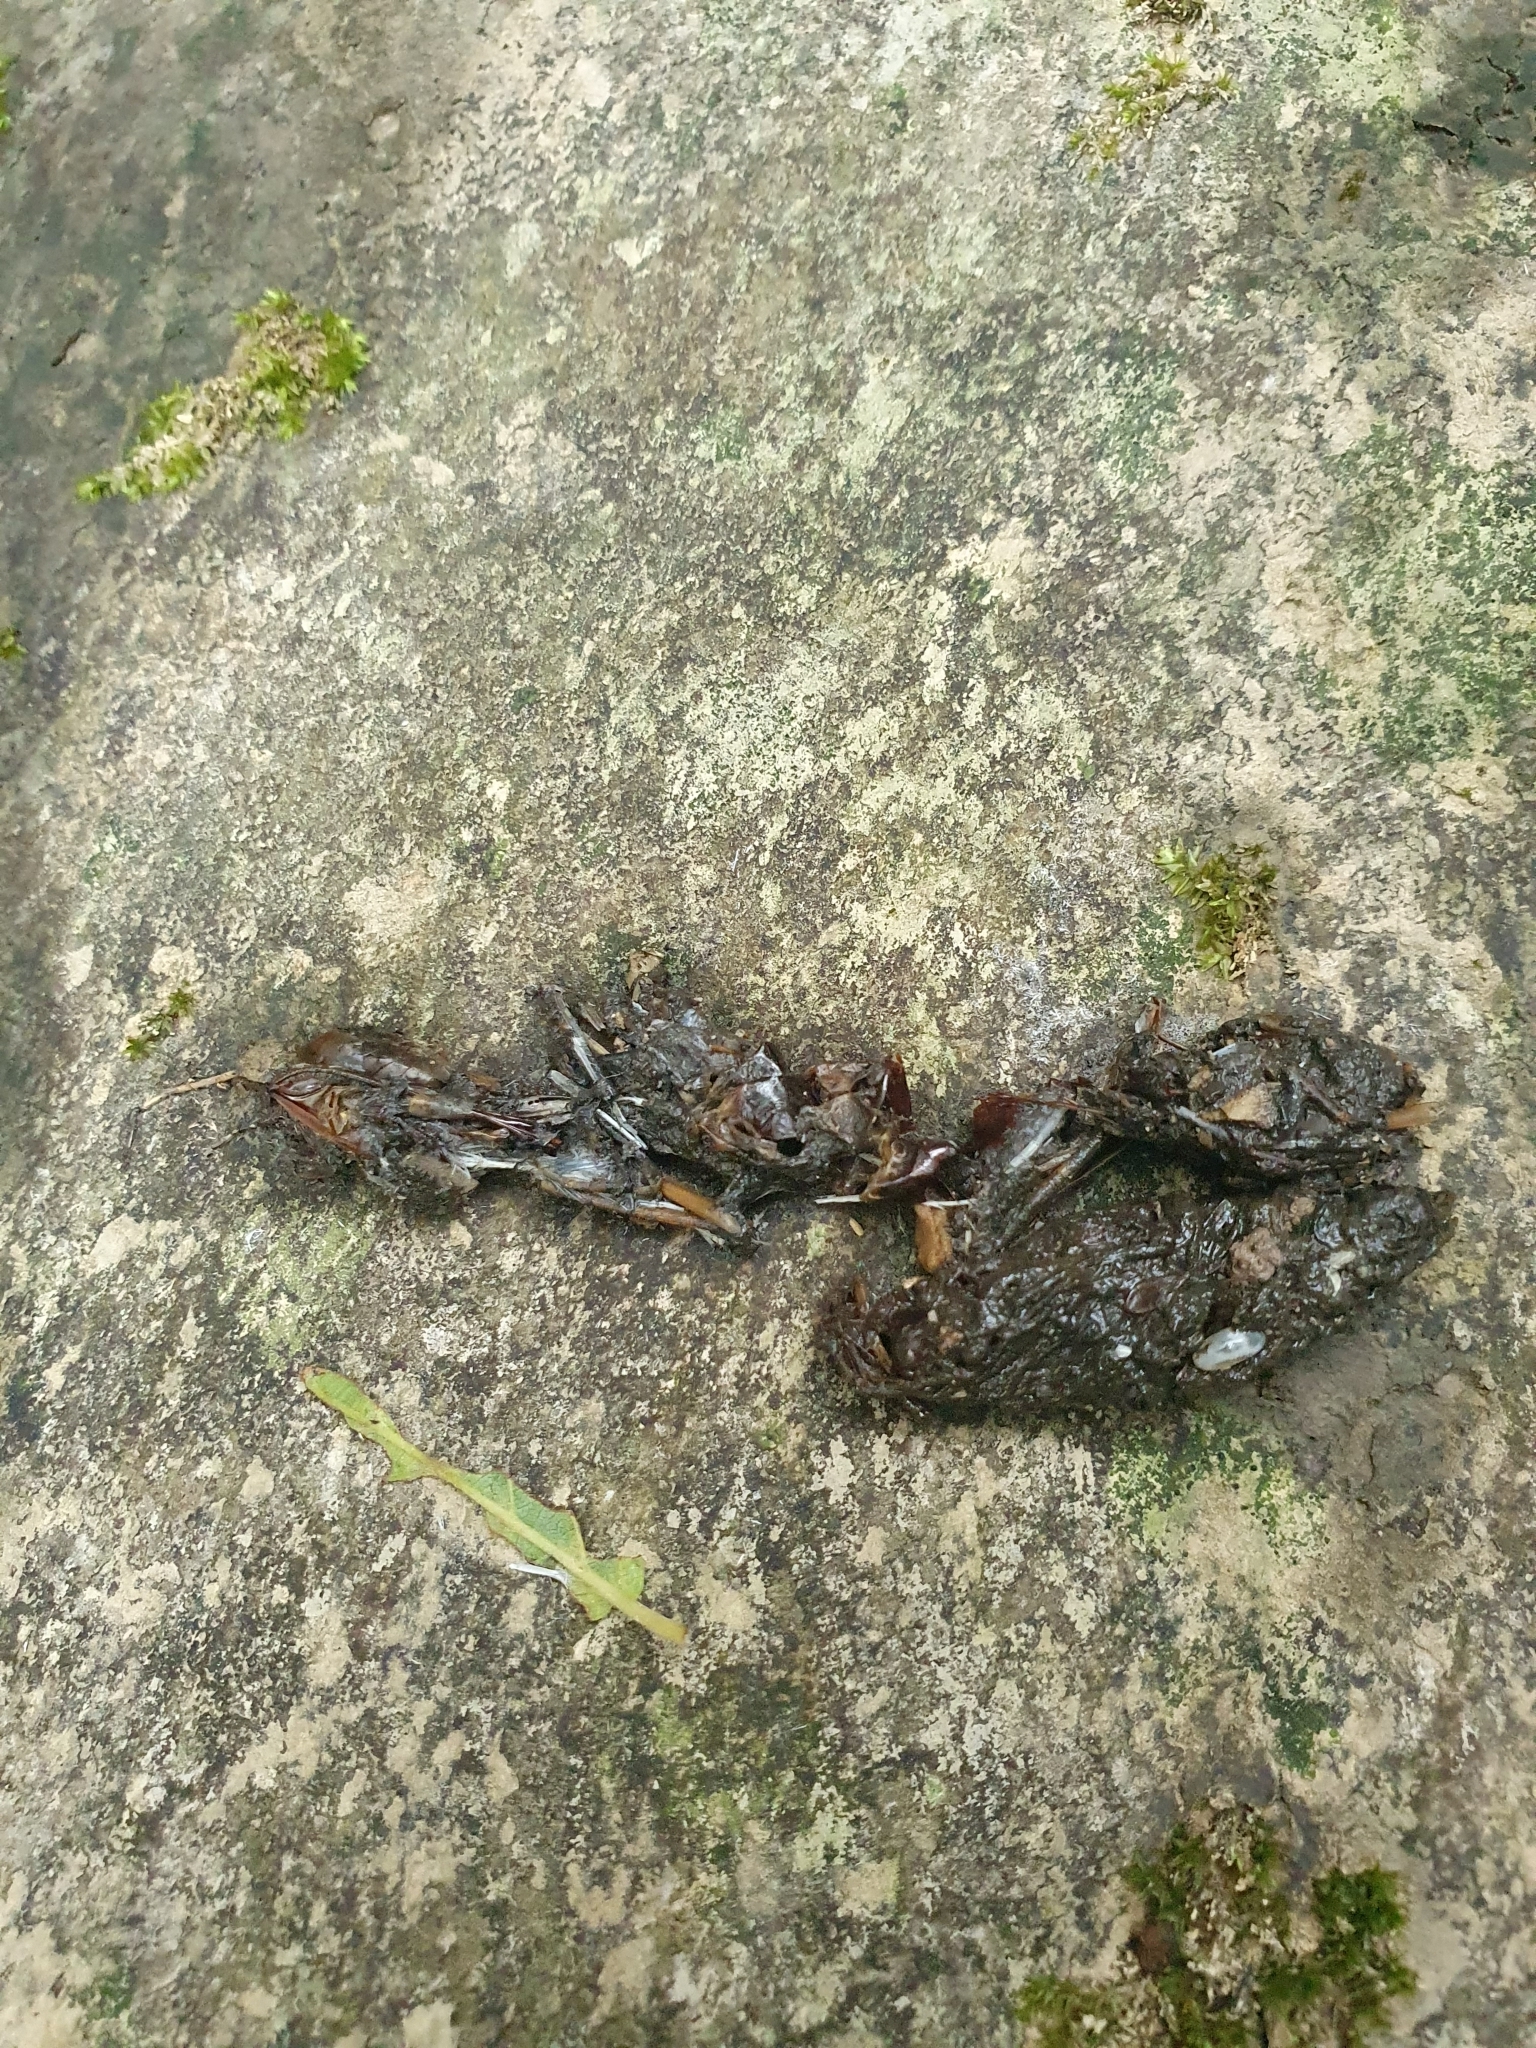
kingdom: Animalia
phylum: Chordata
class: Mammalia
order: Carnivora
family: Mustelidae
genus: Lutra
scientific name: Lutra lutra
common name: European otter
